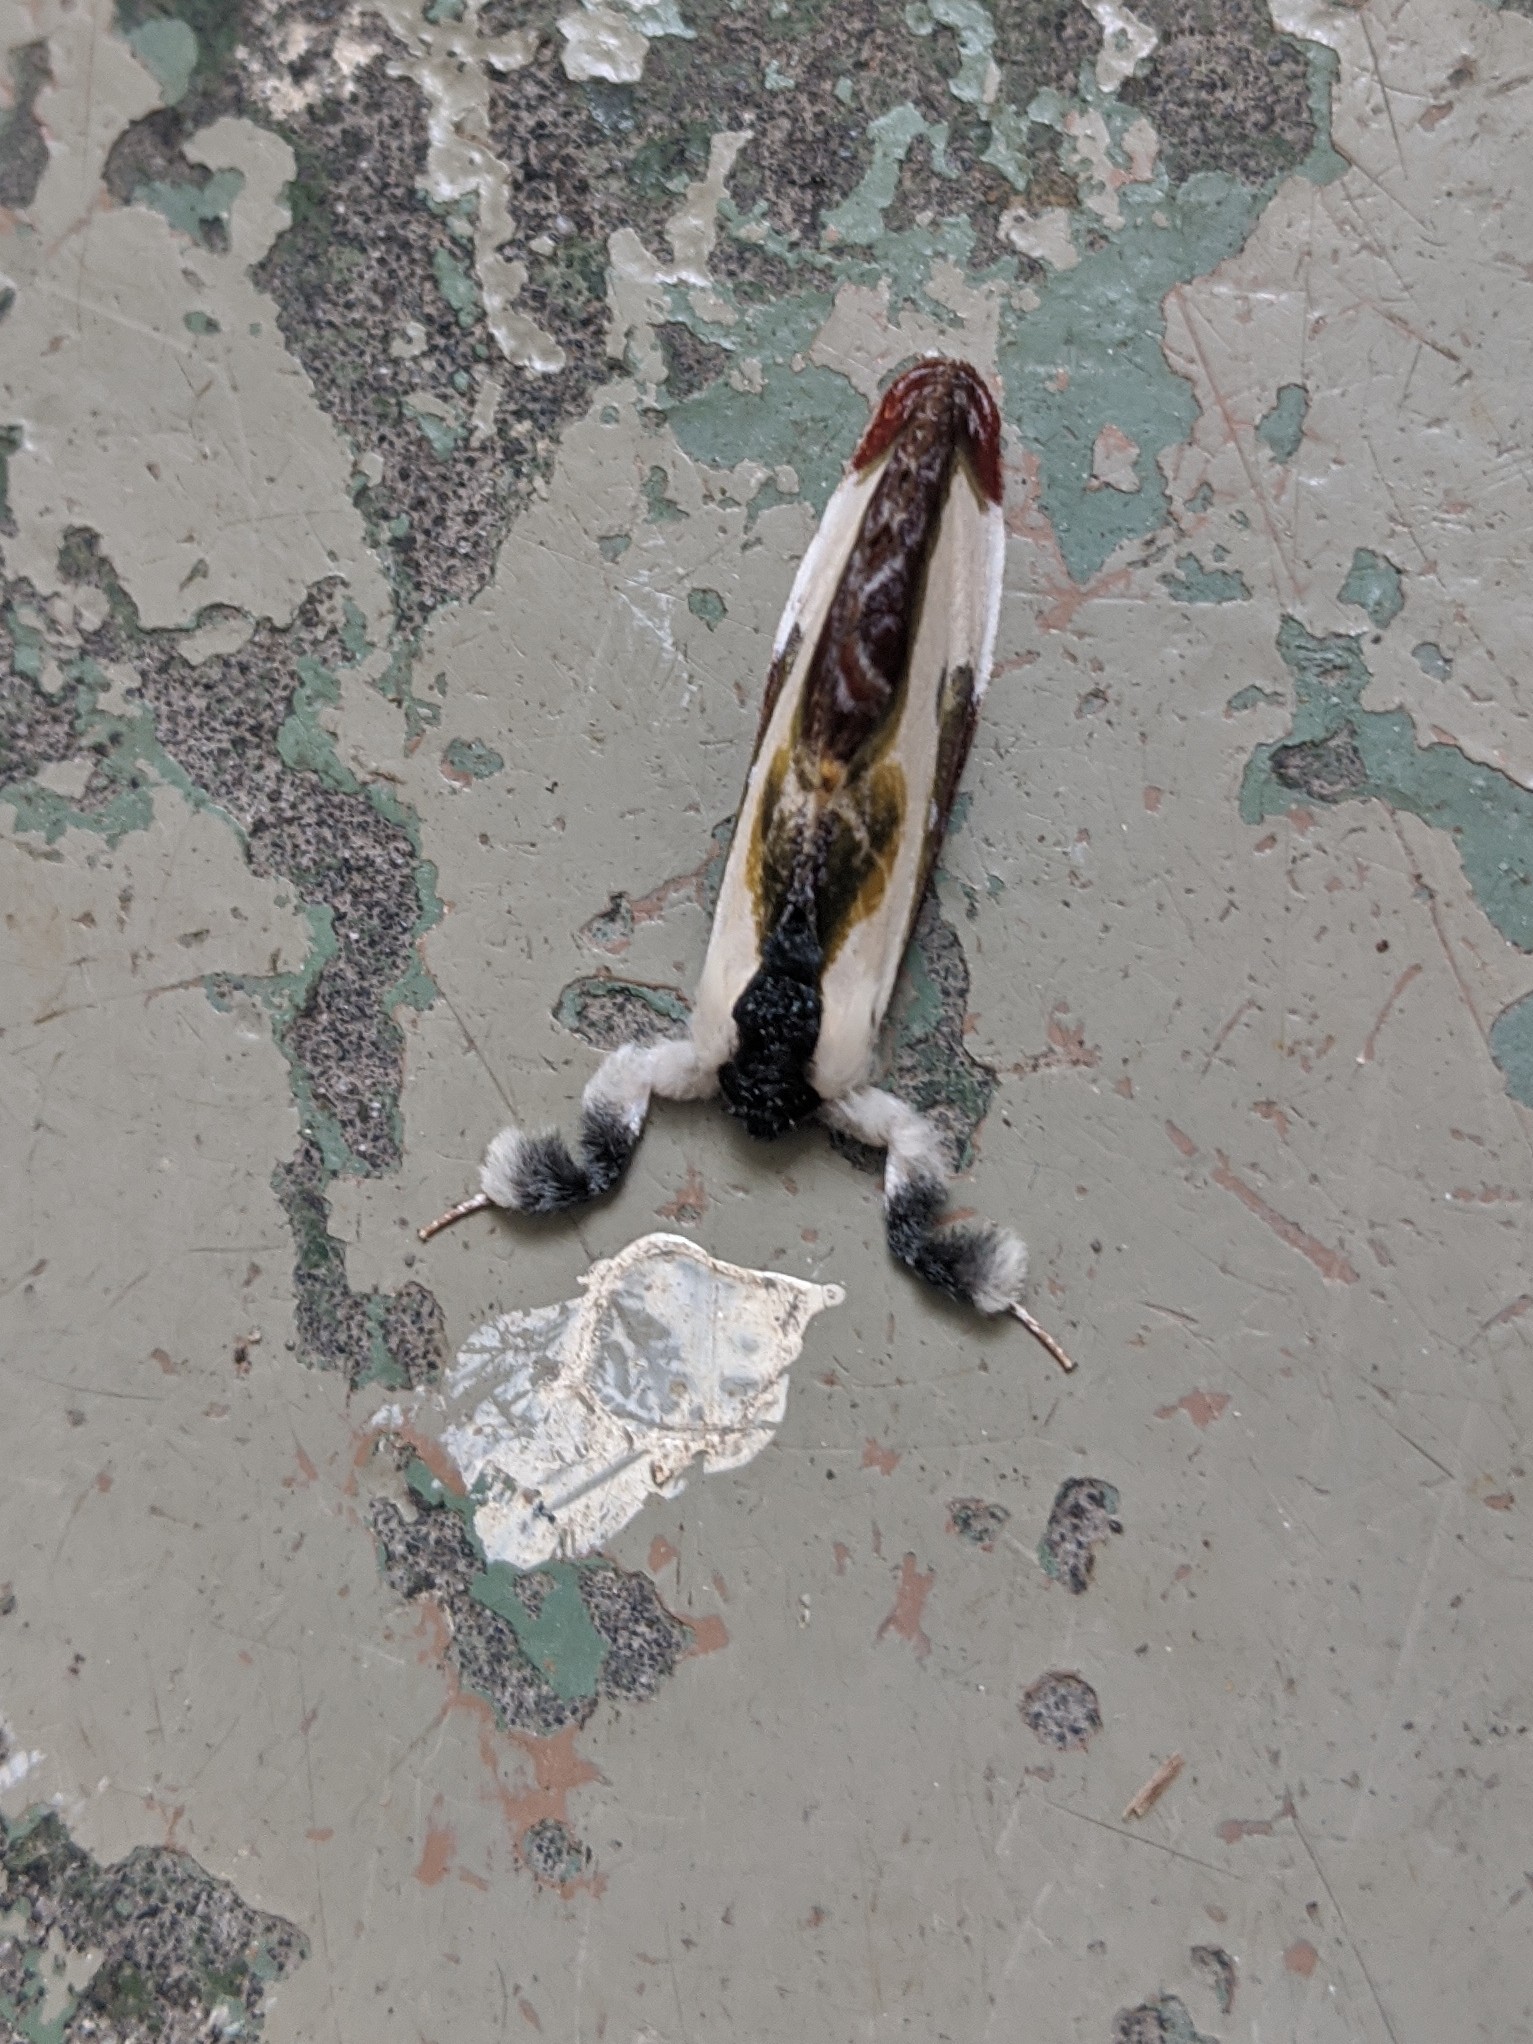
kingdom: Animalia
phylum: Arthropoda
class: Insecta
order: Lepidoptera
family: Noctuidae
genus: Eudryas
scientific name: Eudryas grata
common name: Beautiful wood-nymph
